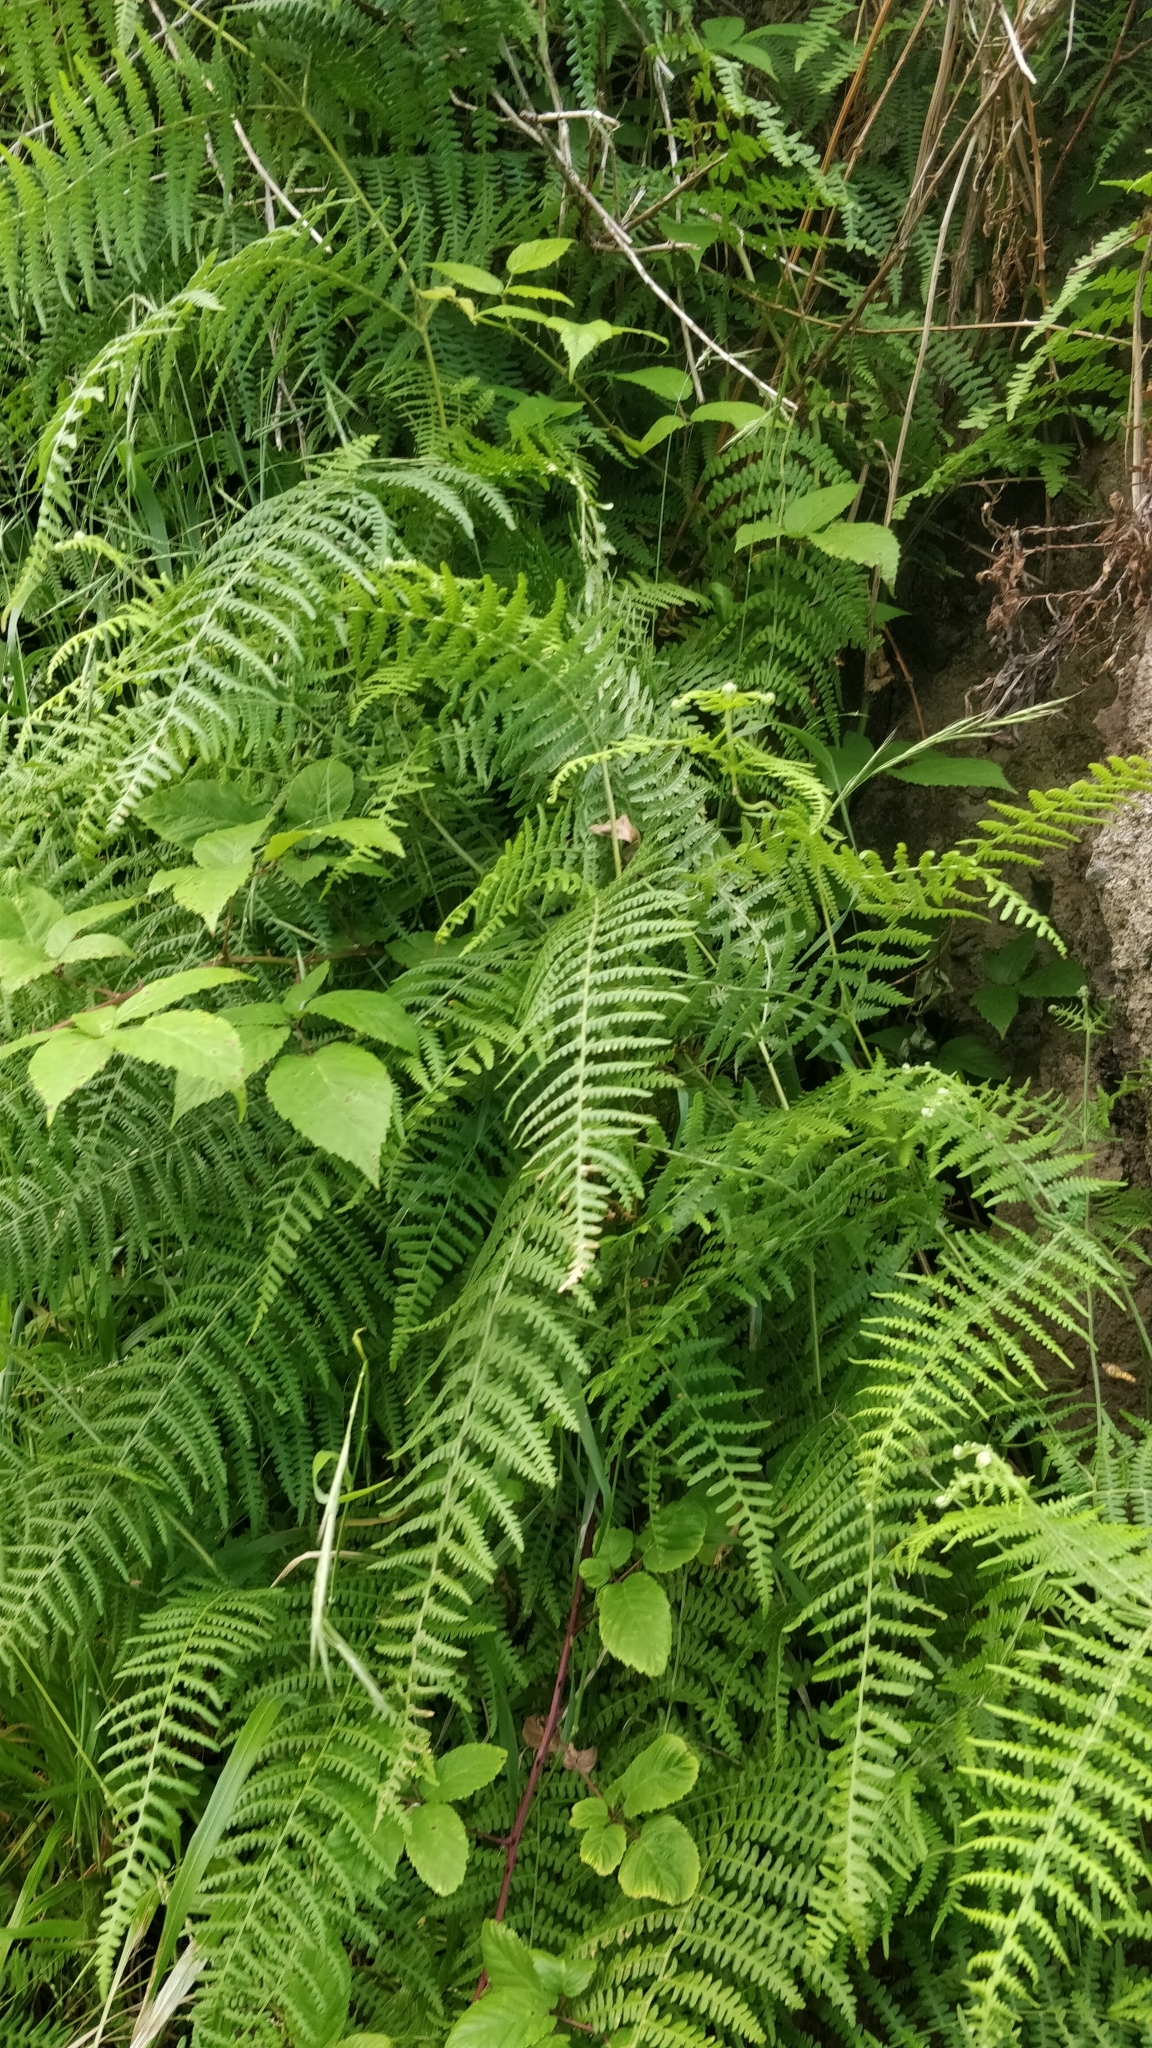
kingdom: Plantae
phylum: Tracheophyta
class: Polypodiopsida
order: Polypodiales
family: Dennstaedtiaceae
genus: Pteridium
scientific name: Pteridium aquilinum
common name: Bracken
